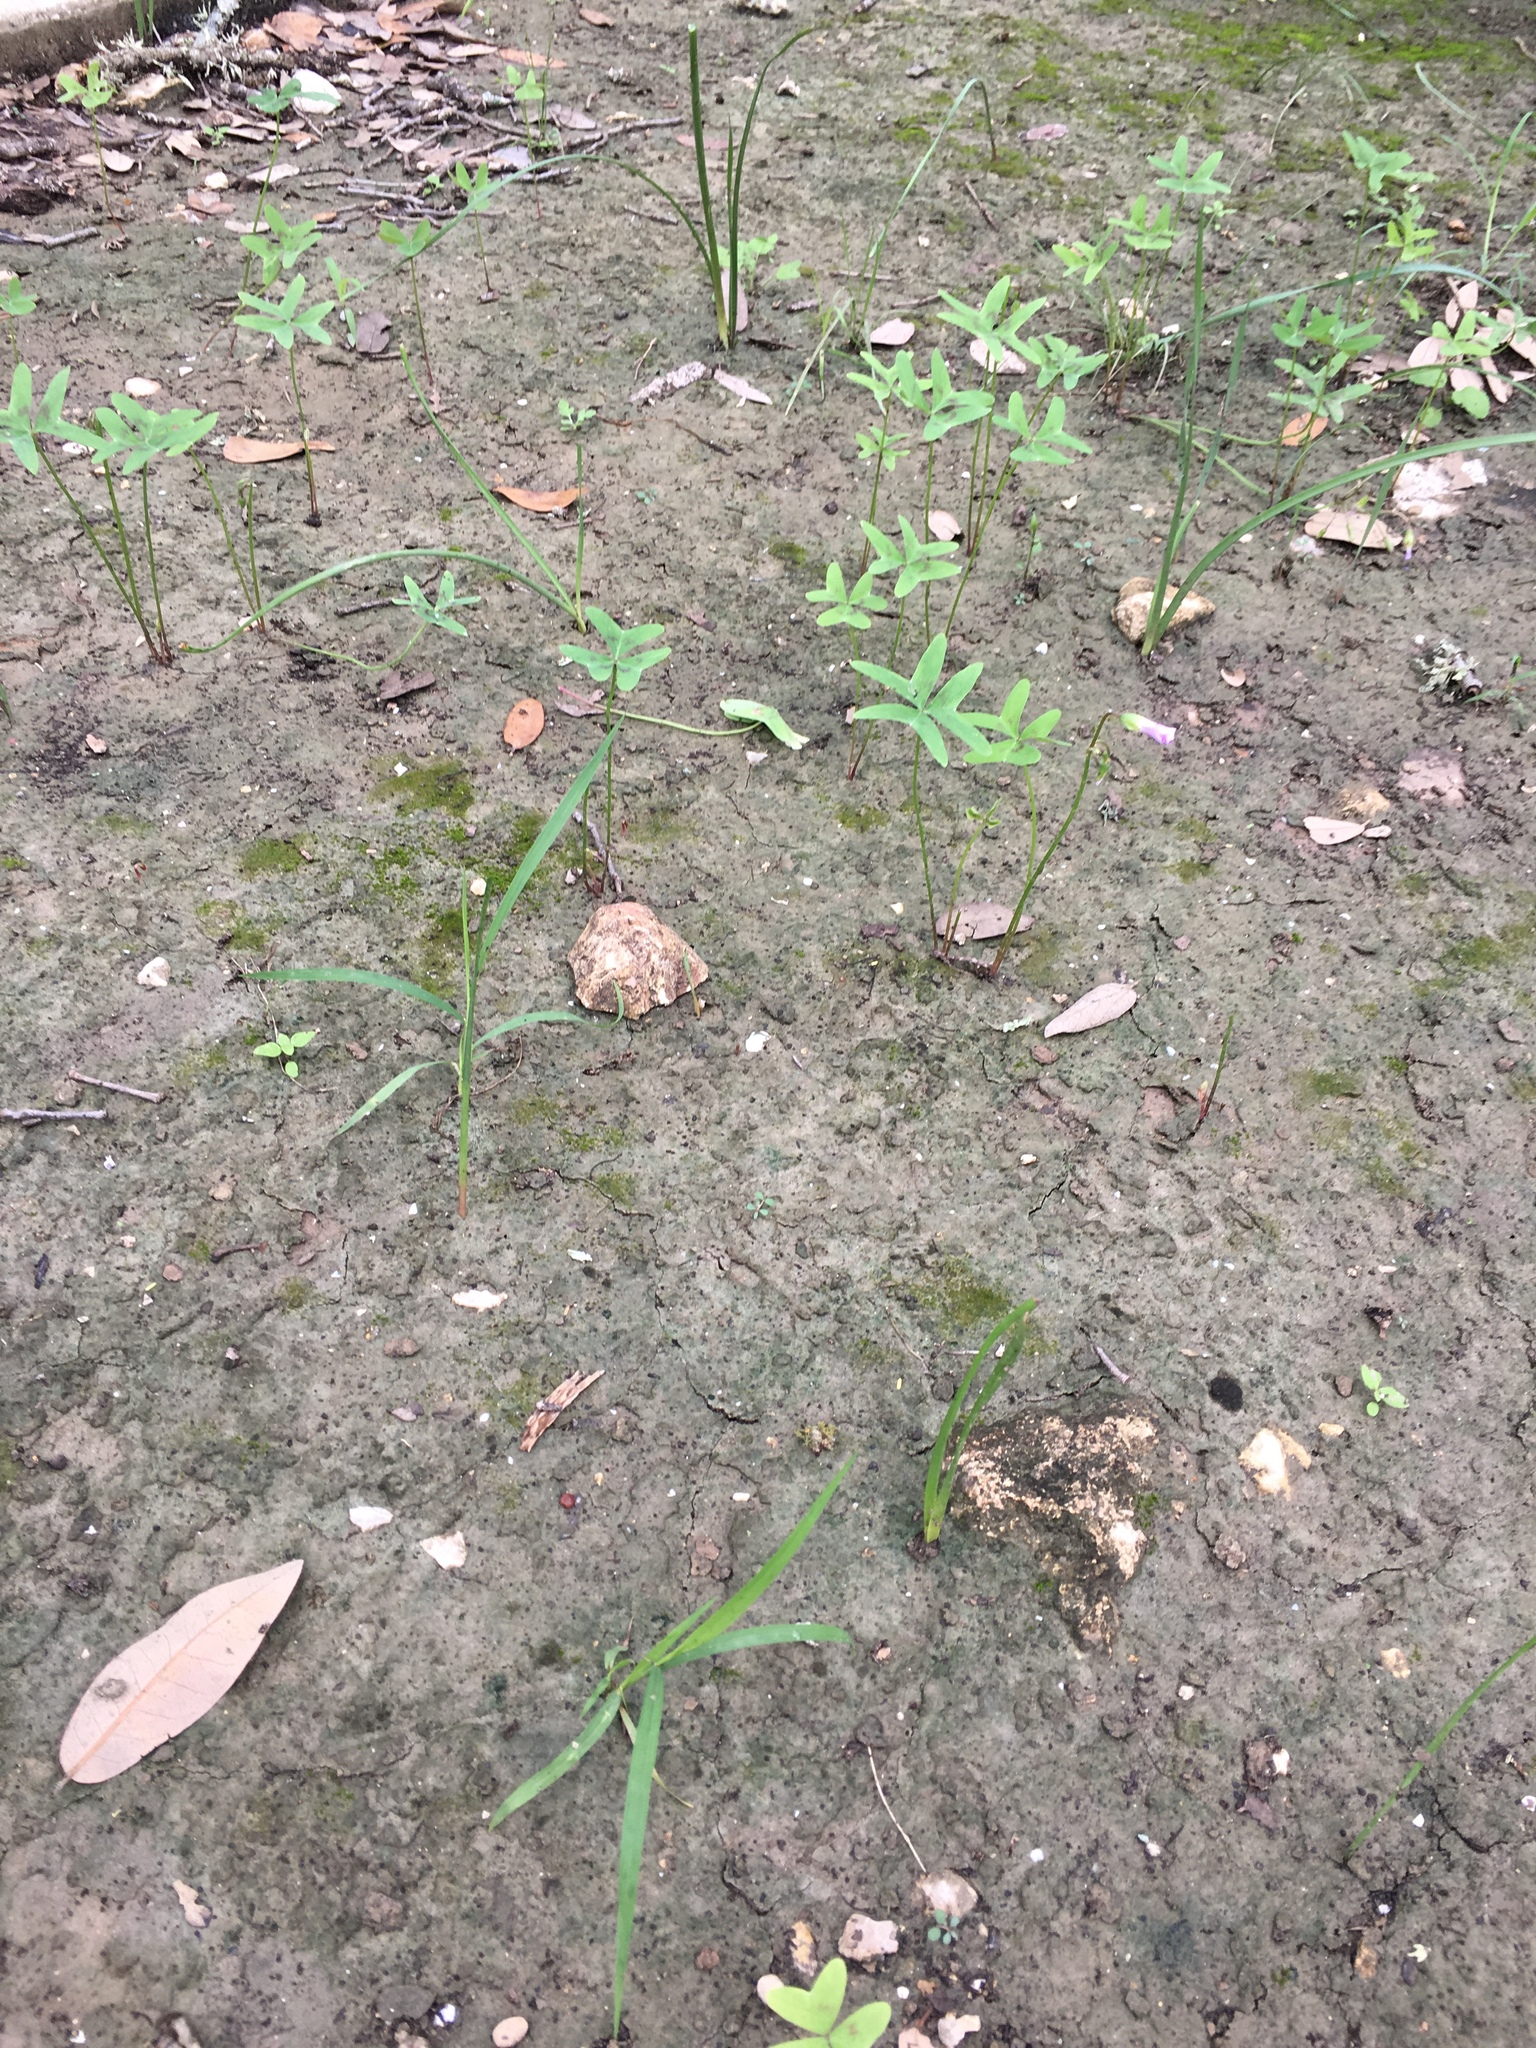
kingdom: Plantae
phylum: Tracheophyta
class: Magnoliopsida
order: Oxalidales
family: Oxalidaceae
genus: Oxalis
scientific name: Oxalis drummondii
